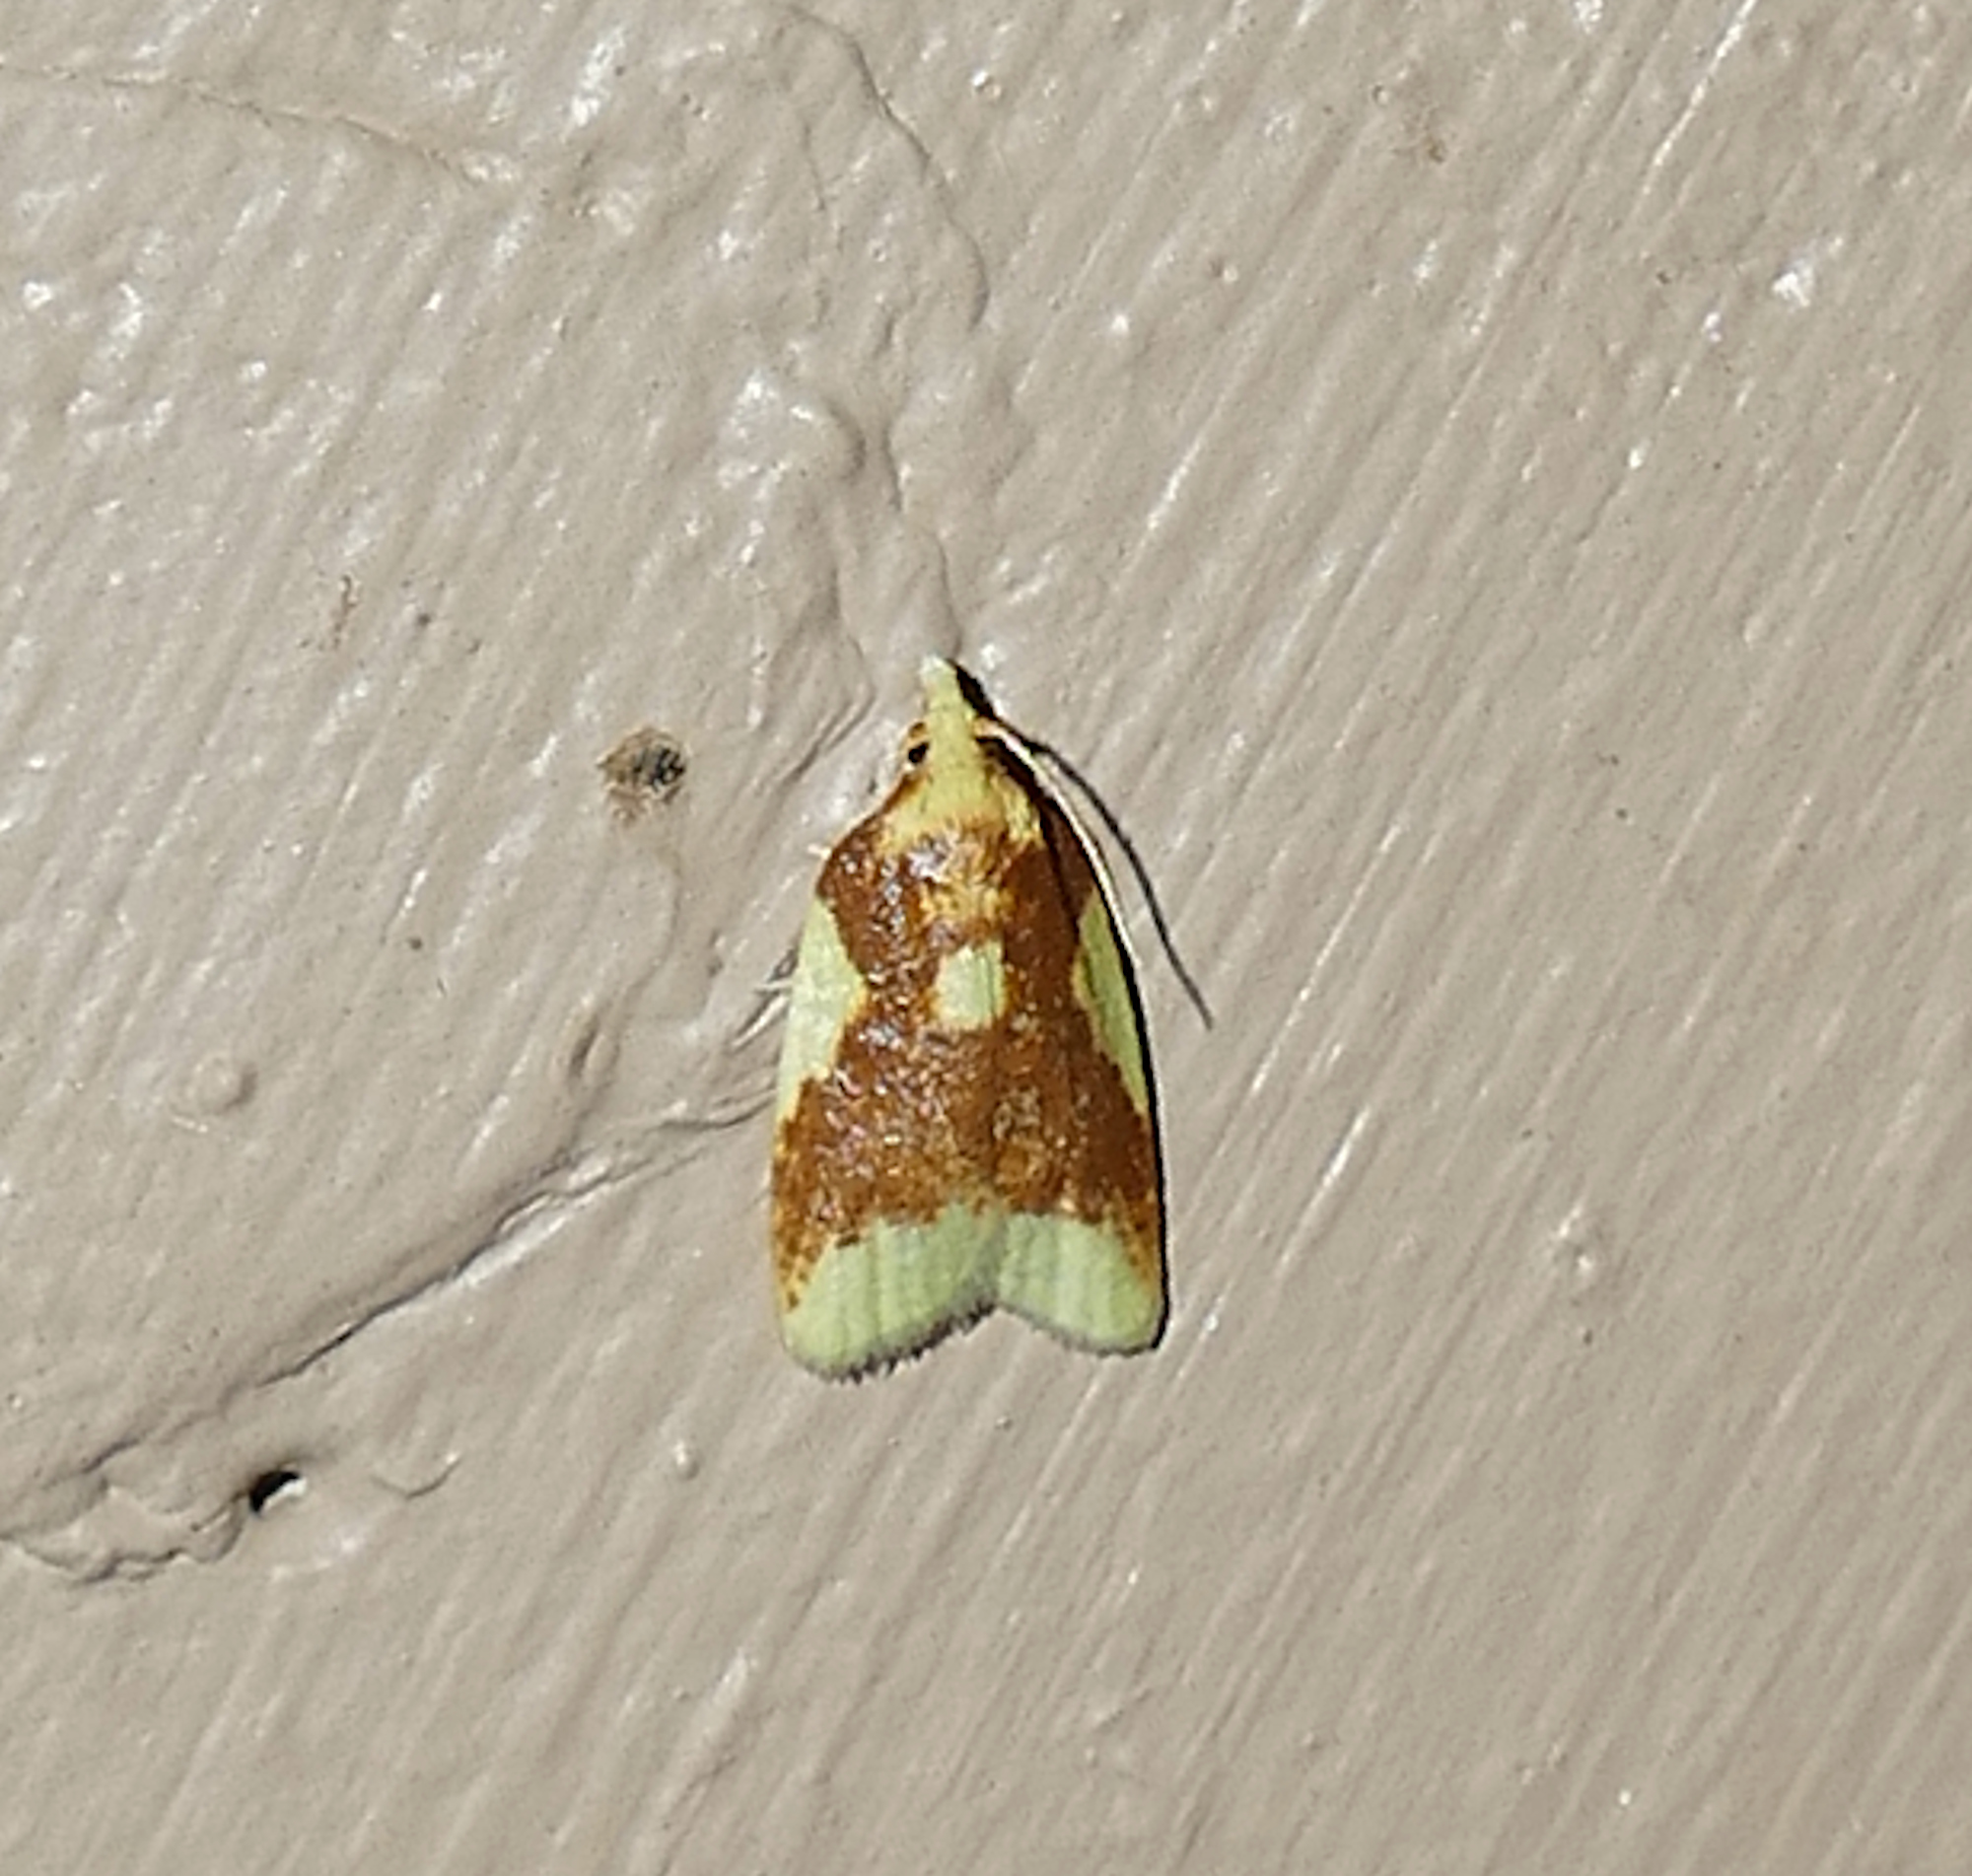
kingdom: Animalia
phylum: Arthropoda
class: Insecta
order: Lepidoptera
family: Tortricidae
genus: Sparganothis
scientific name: Sparganothis pulcherrimana
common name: Beautiful sparganothis
